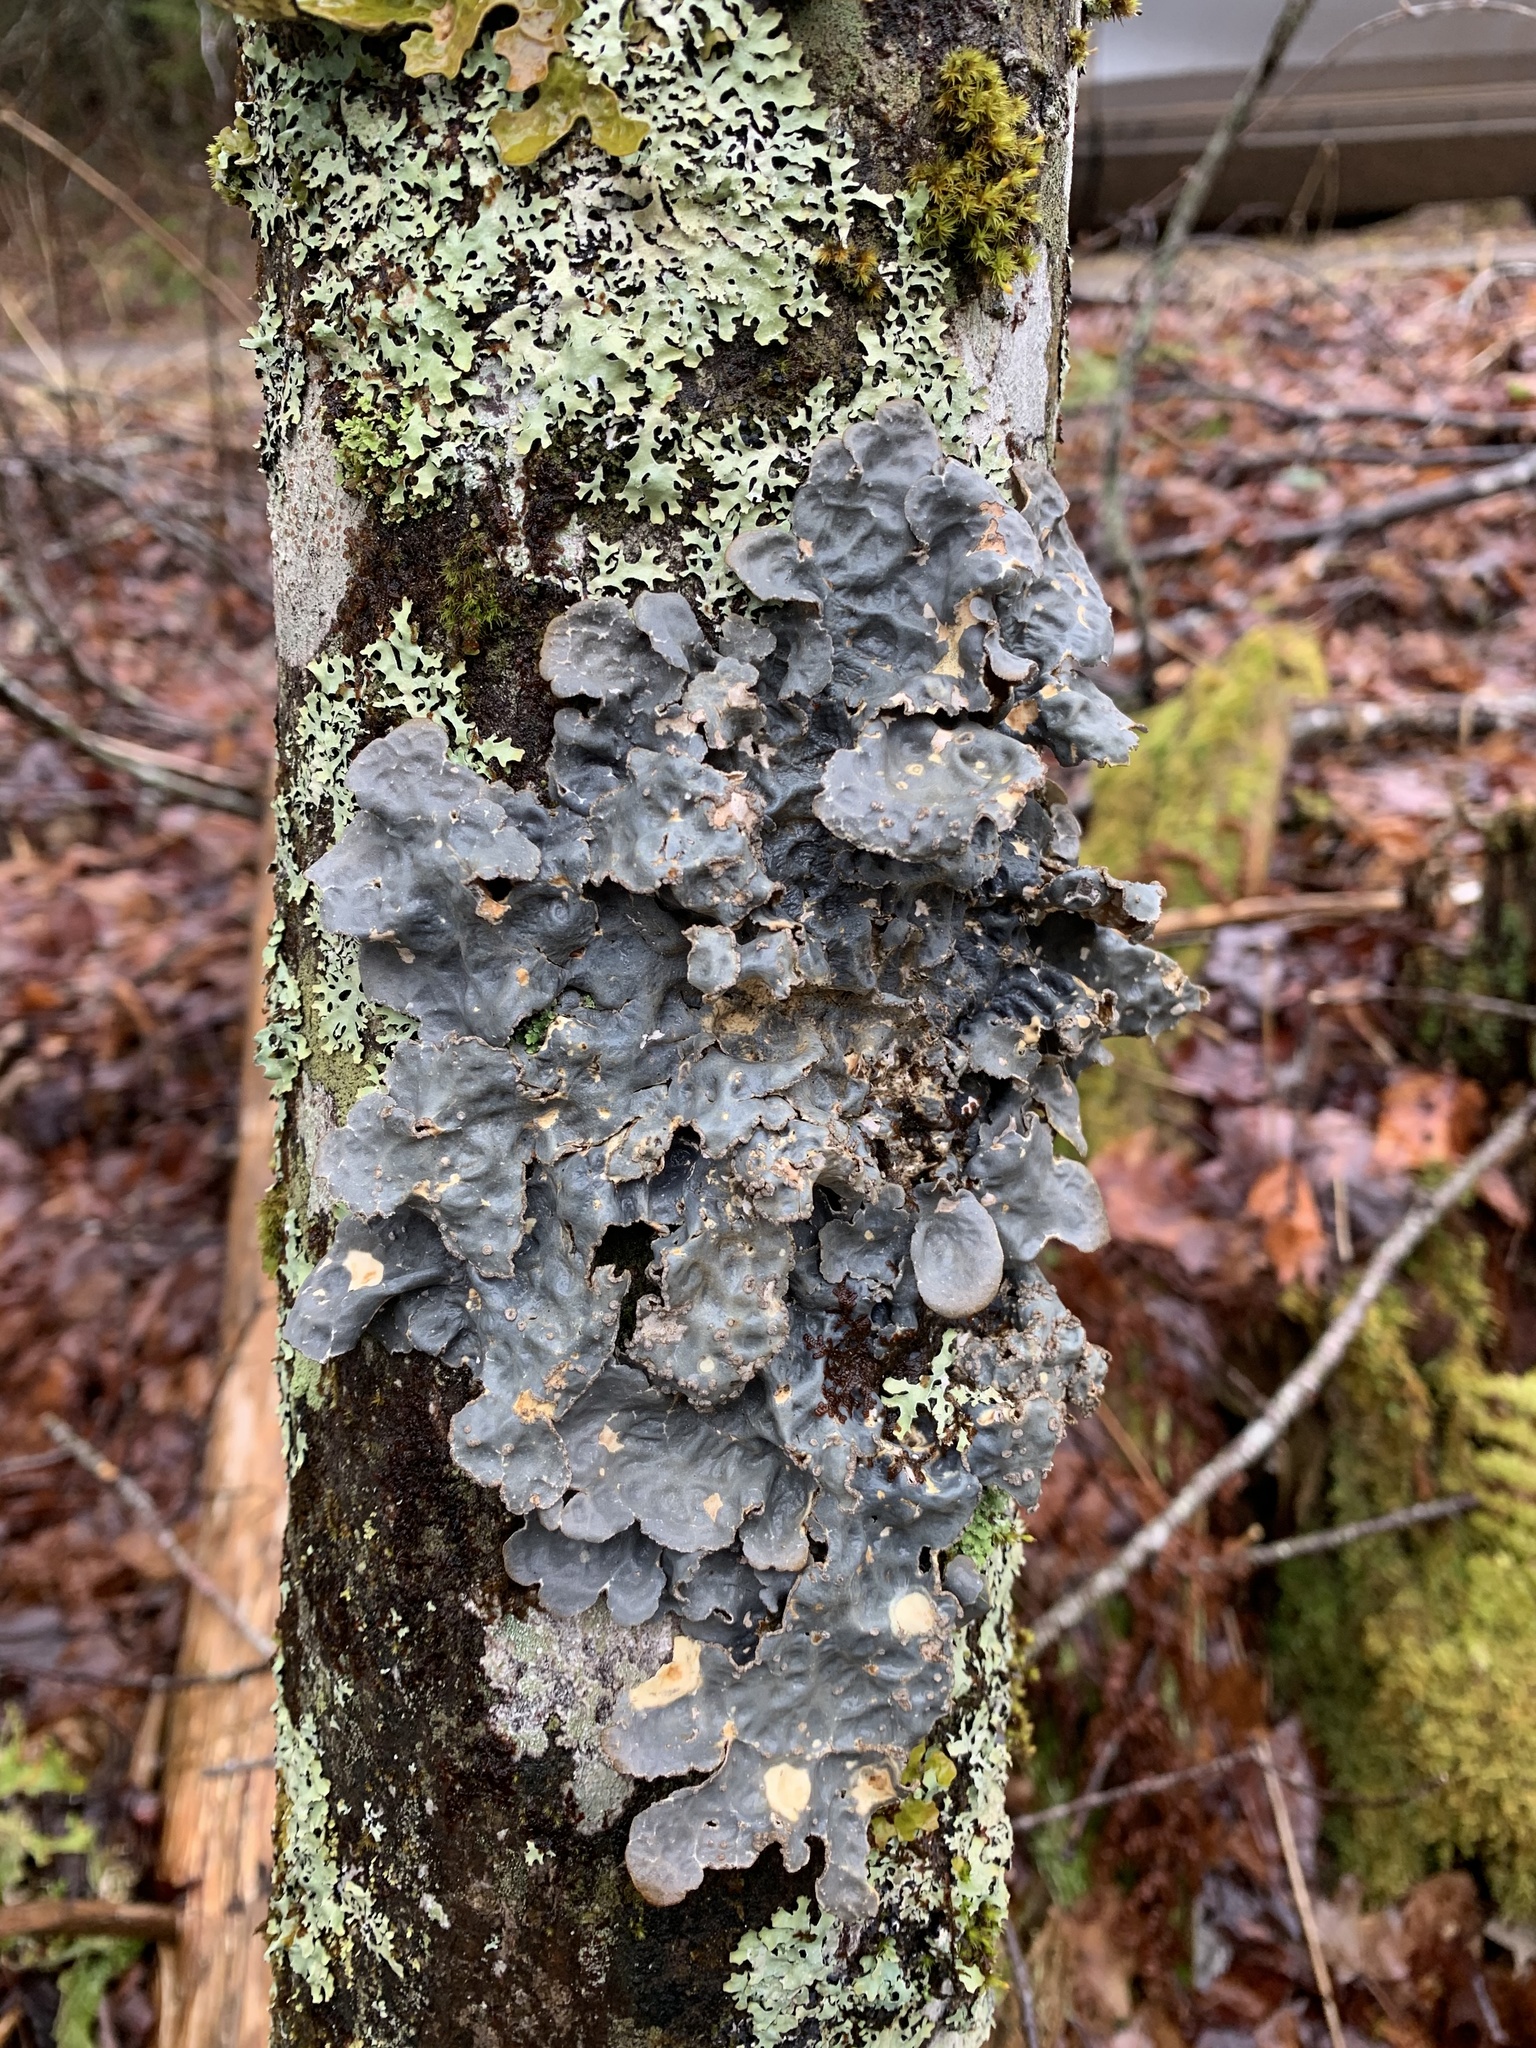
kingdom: Fungi
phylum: Ascomycota
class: Lecanoromycetes
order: Peltigerales
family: Lobariaceae
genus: Lobarina
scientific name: Lobarina scrobiculata
